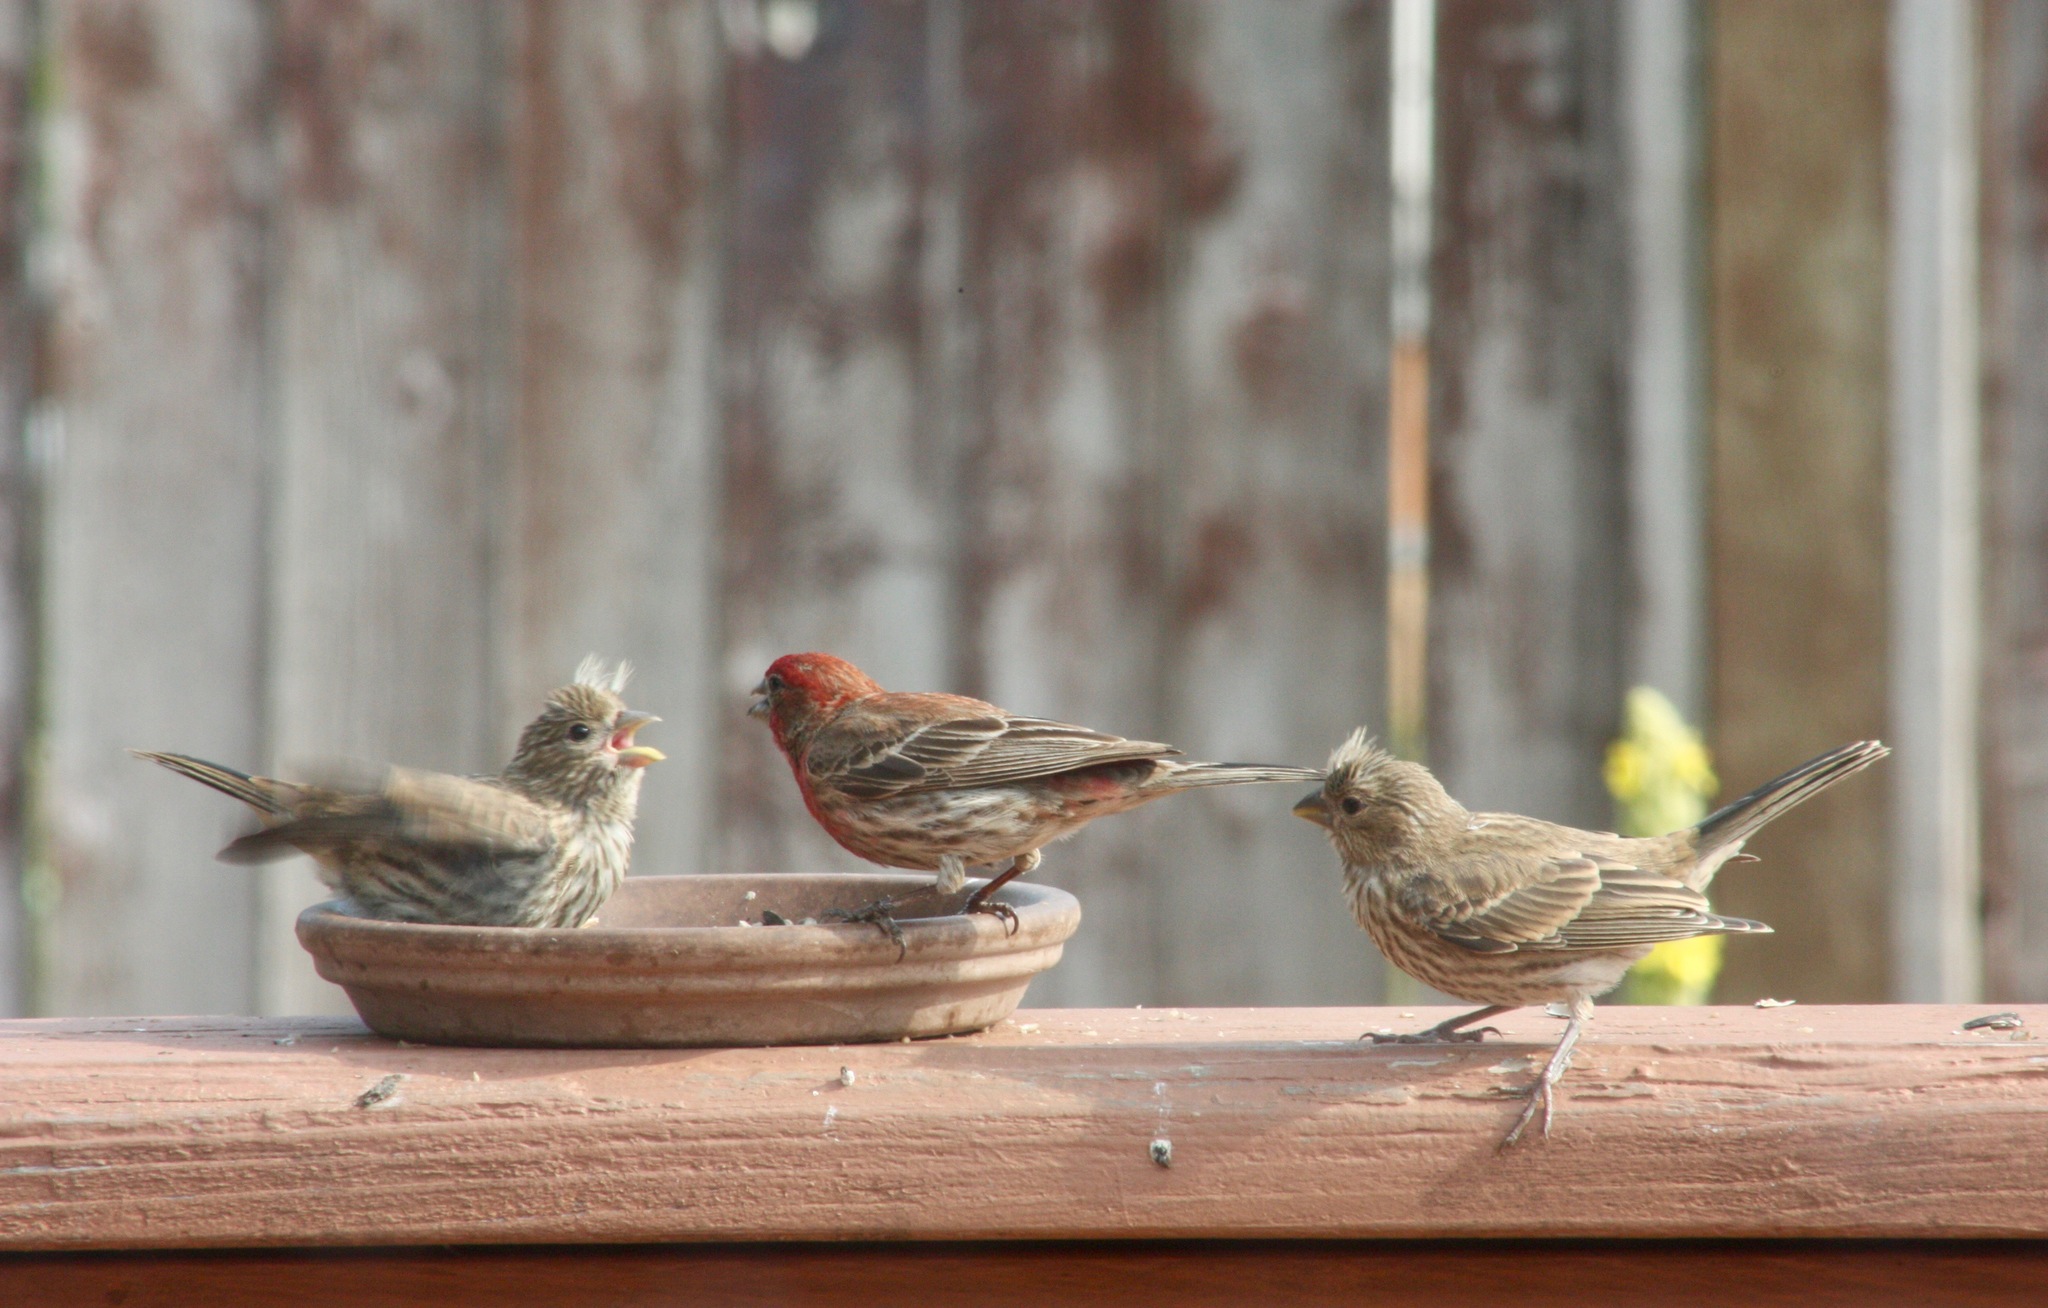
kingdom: Animalia
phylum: Chordata
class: Aves
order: Passeriformes
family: Fringillidae
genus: Haemorhous
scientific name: Haemorhous mexicanus
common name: House finch
